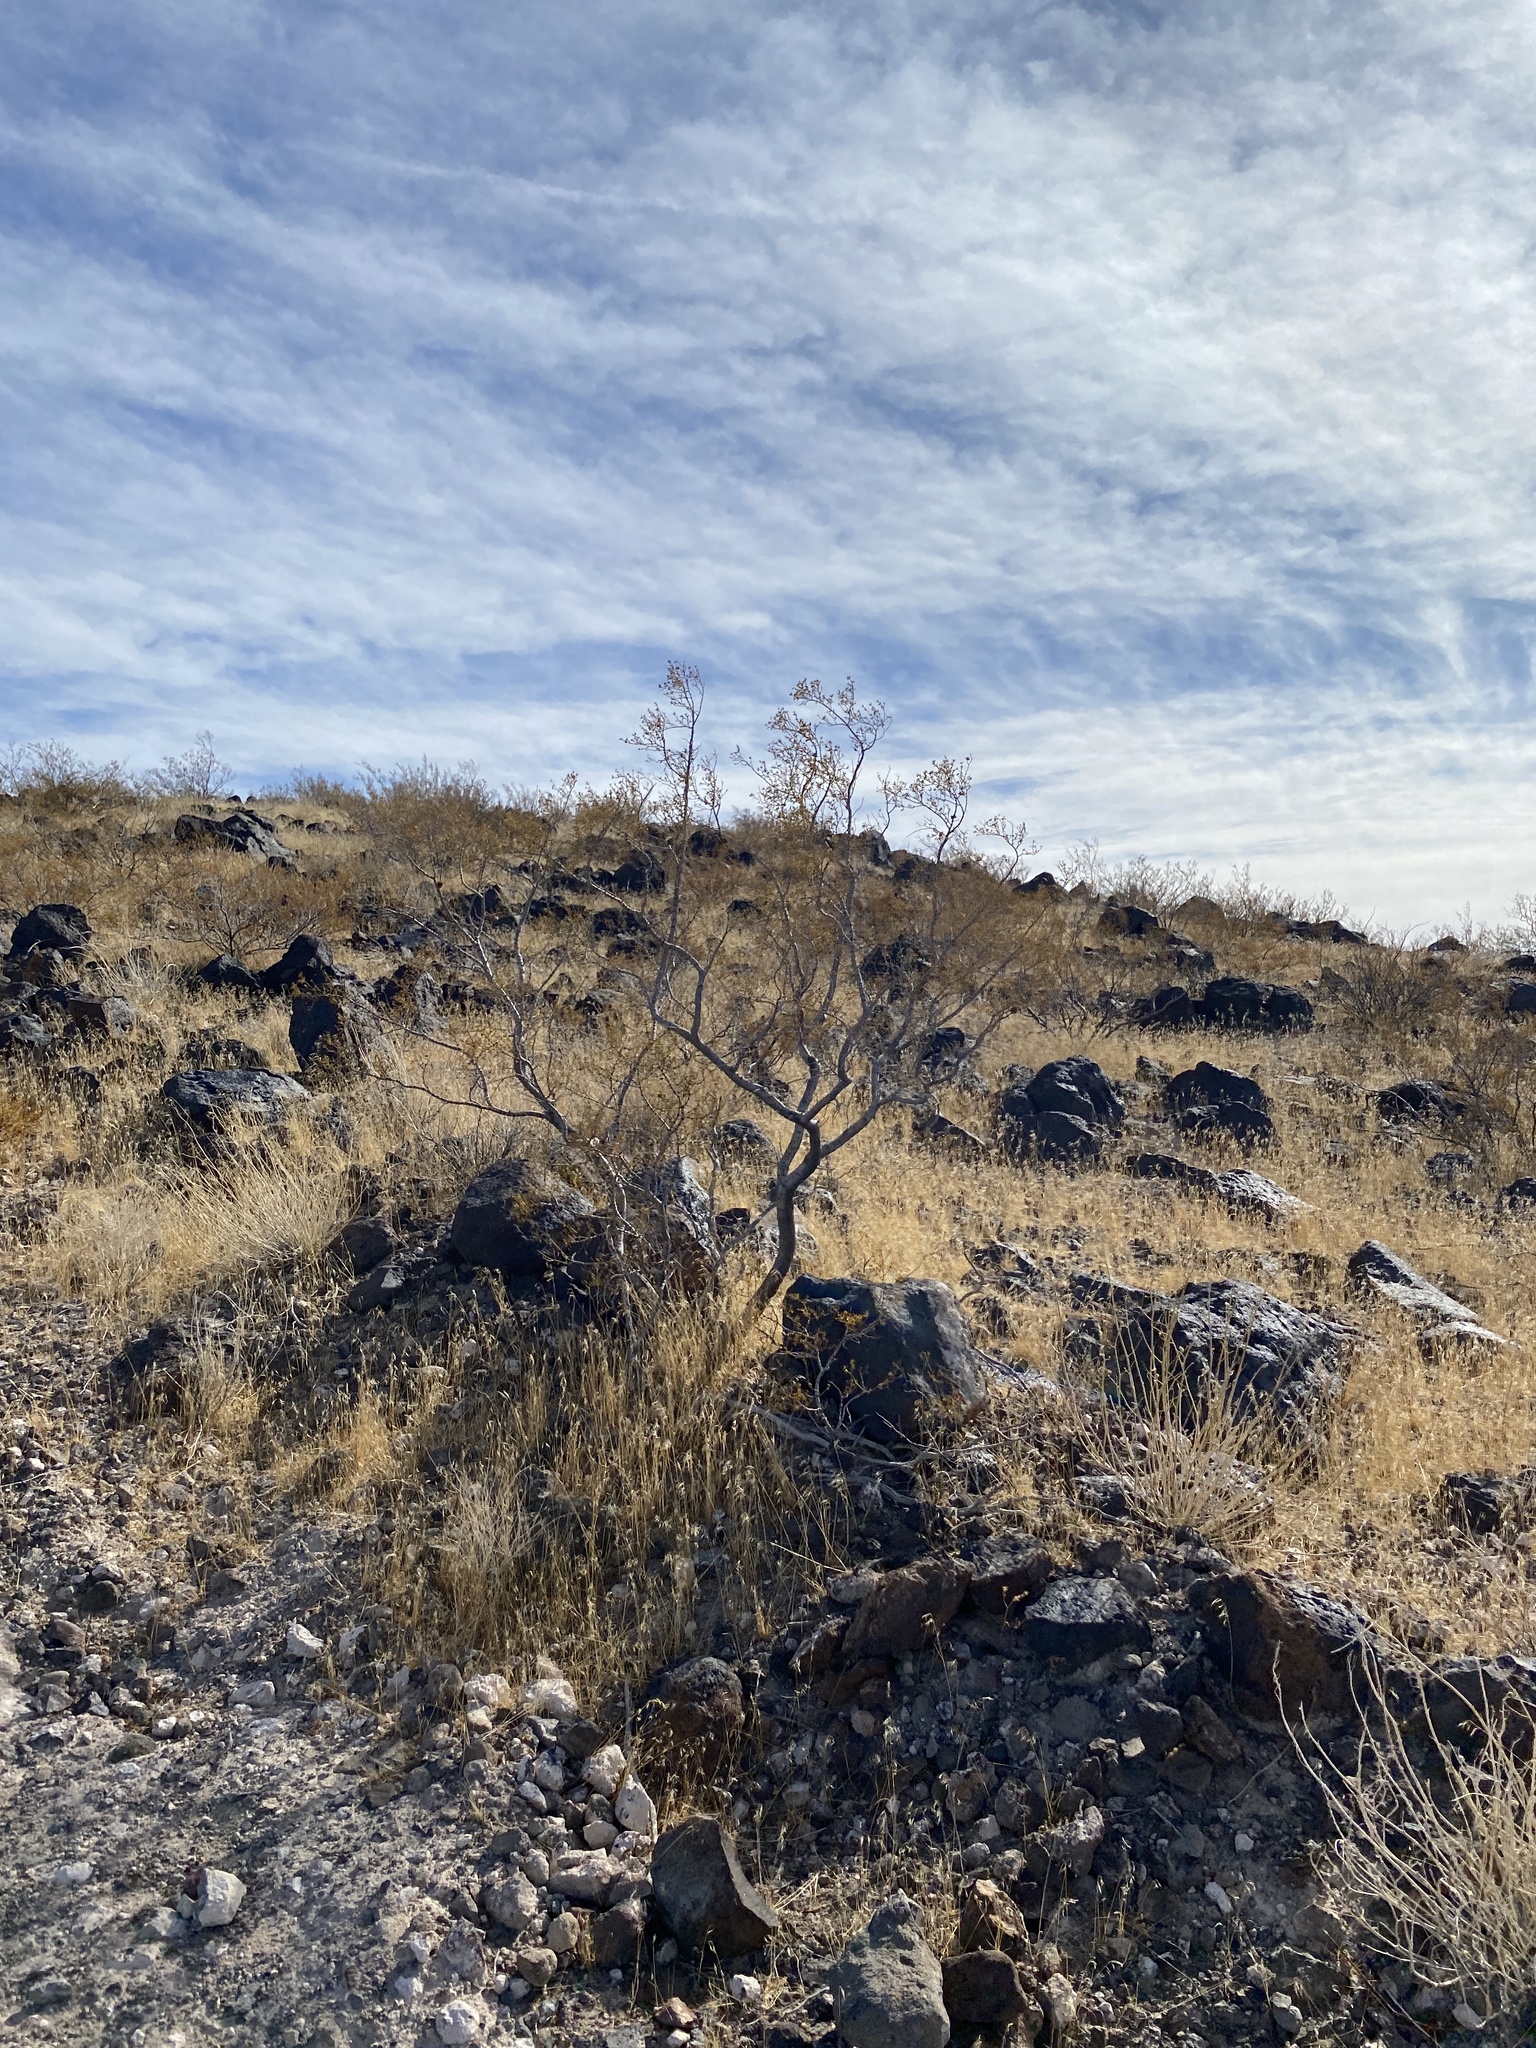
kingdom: Plantae
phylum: Tracheophyta
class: Magnoliopsida
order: Zygophyllales
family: Zygophyllaceae
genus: Larrea
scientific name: Larrea tridentata
